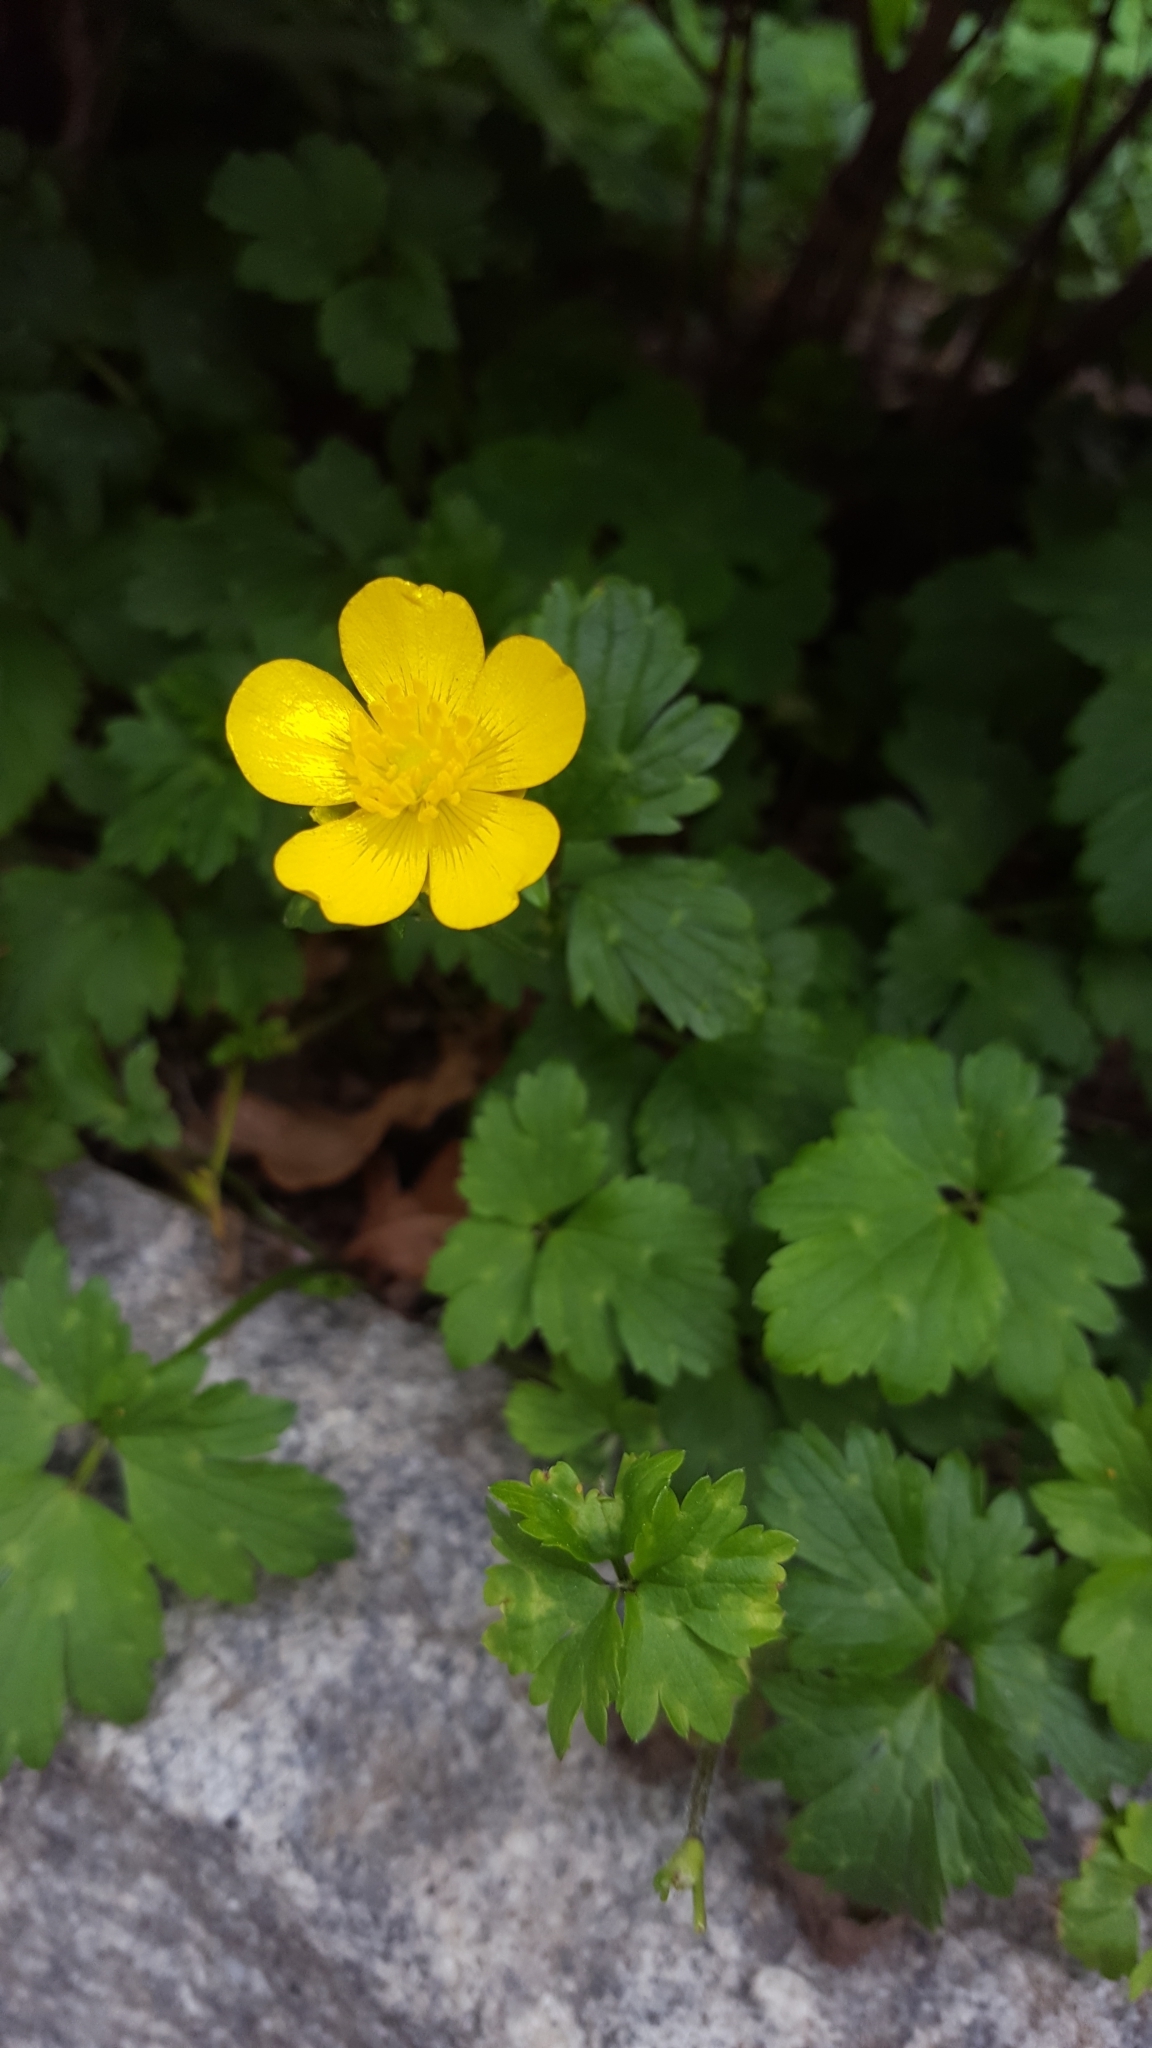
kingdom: Plantae
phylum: Tracheophyta
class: Magnoliopsida
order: Ranunculales
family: Ranunculaceae
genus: Ranunculus
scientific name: Ranunculus repens
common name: Creeping buttercup
